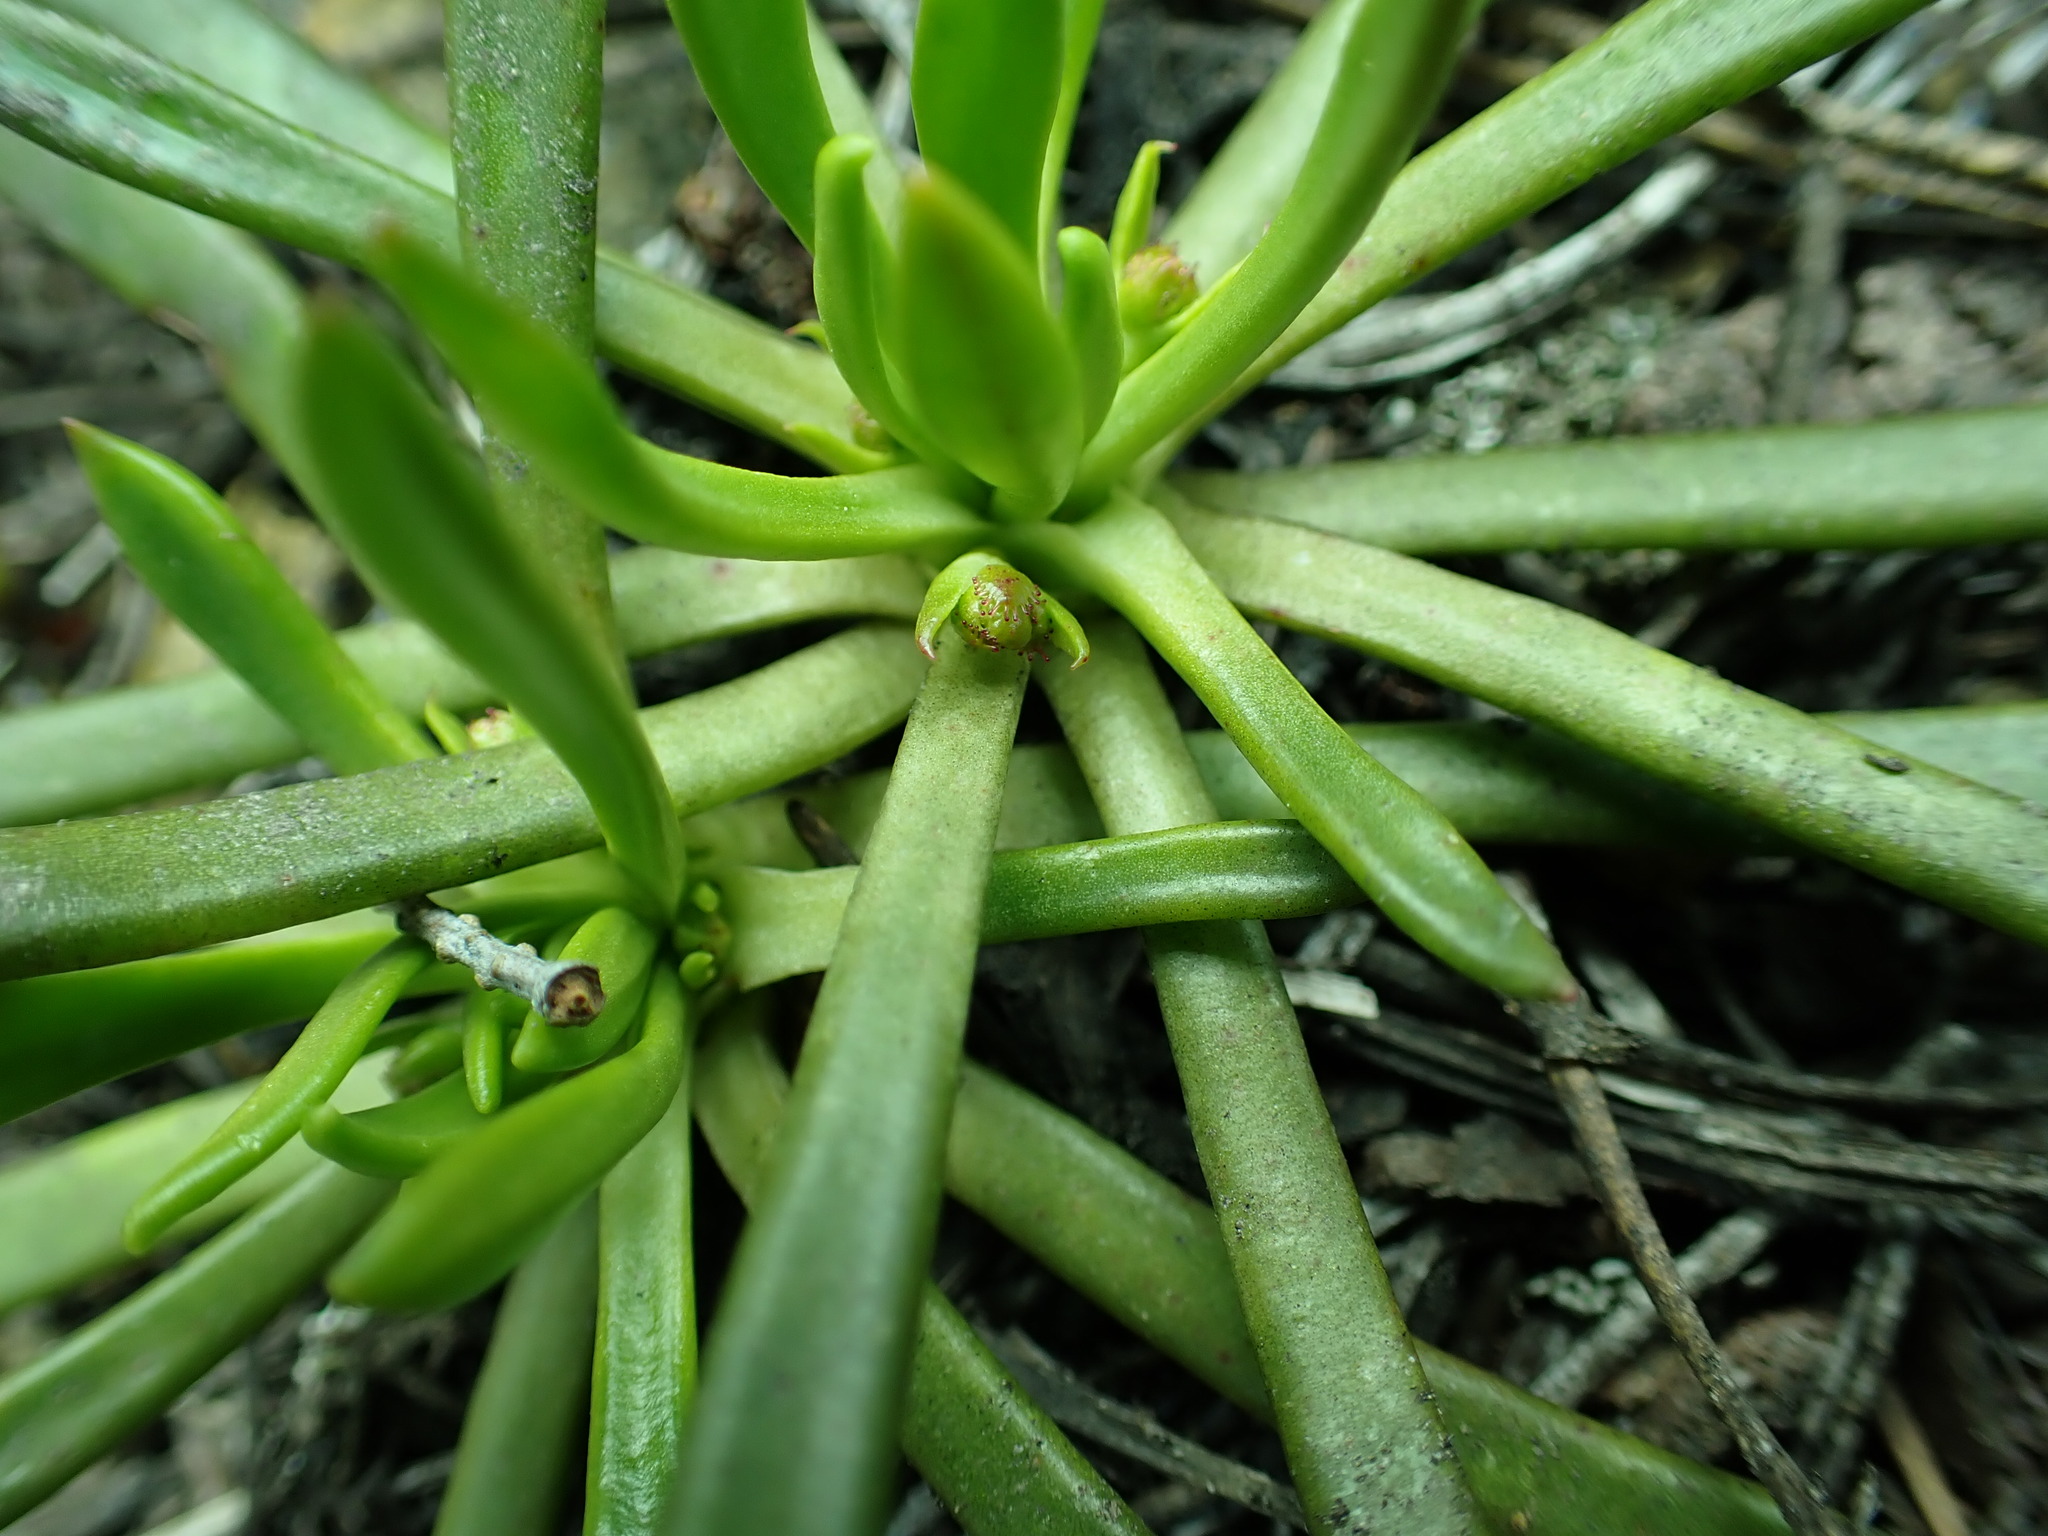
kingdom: Plantae
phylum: Tracheophyta
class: Magnoliopsida
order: Caryophyllales
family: Montiaceae
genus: Lewisia
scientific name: Lewisia columbiana
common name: Columbia lewisia
